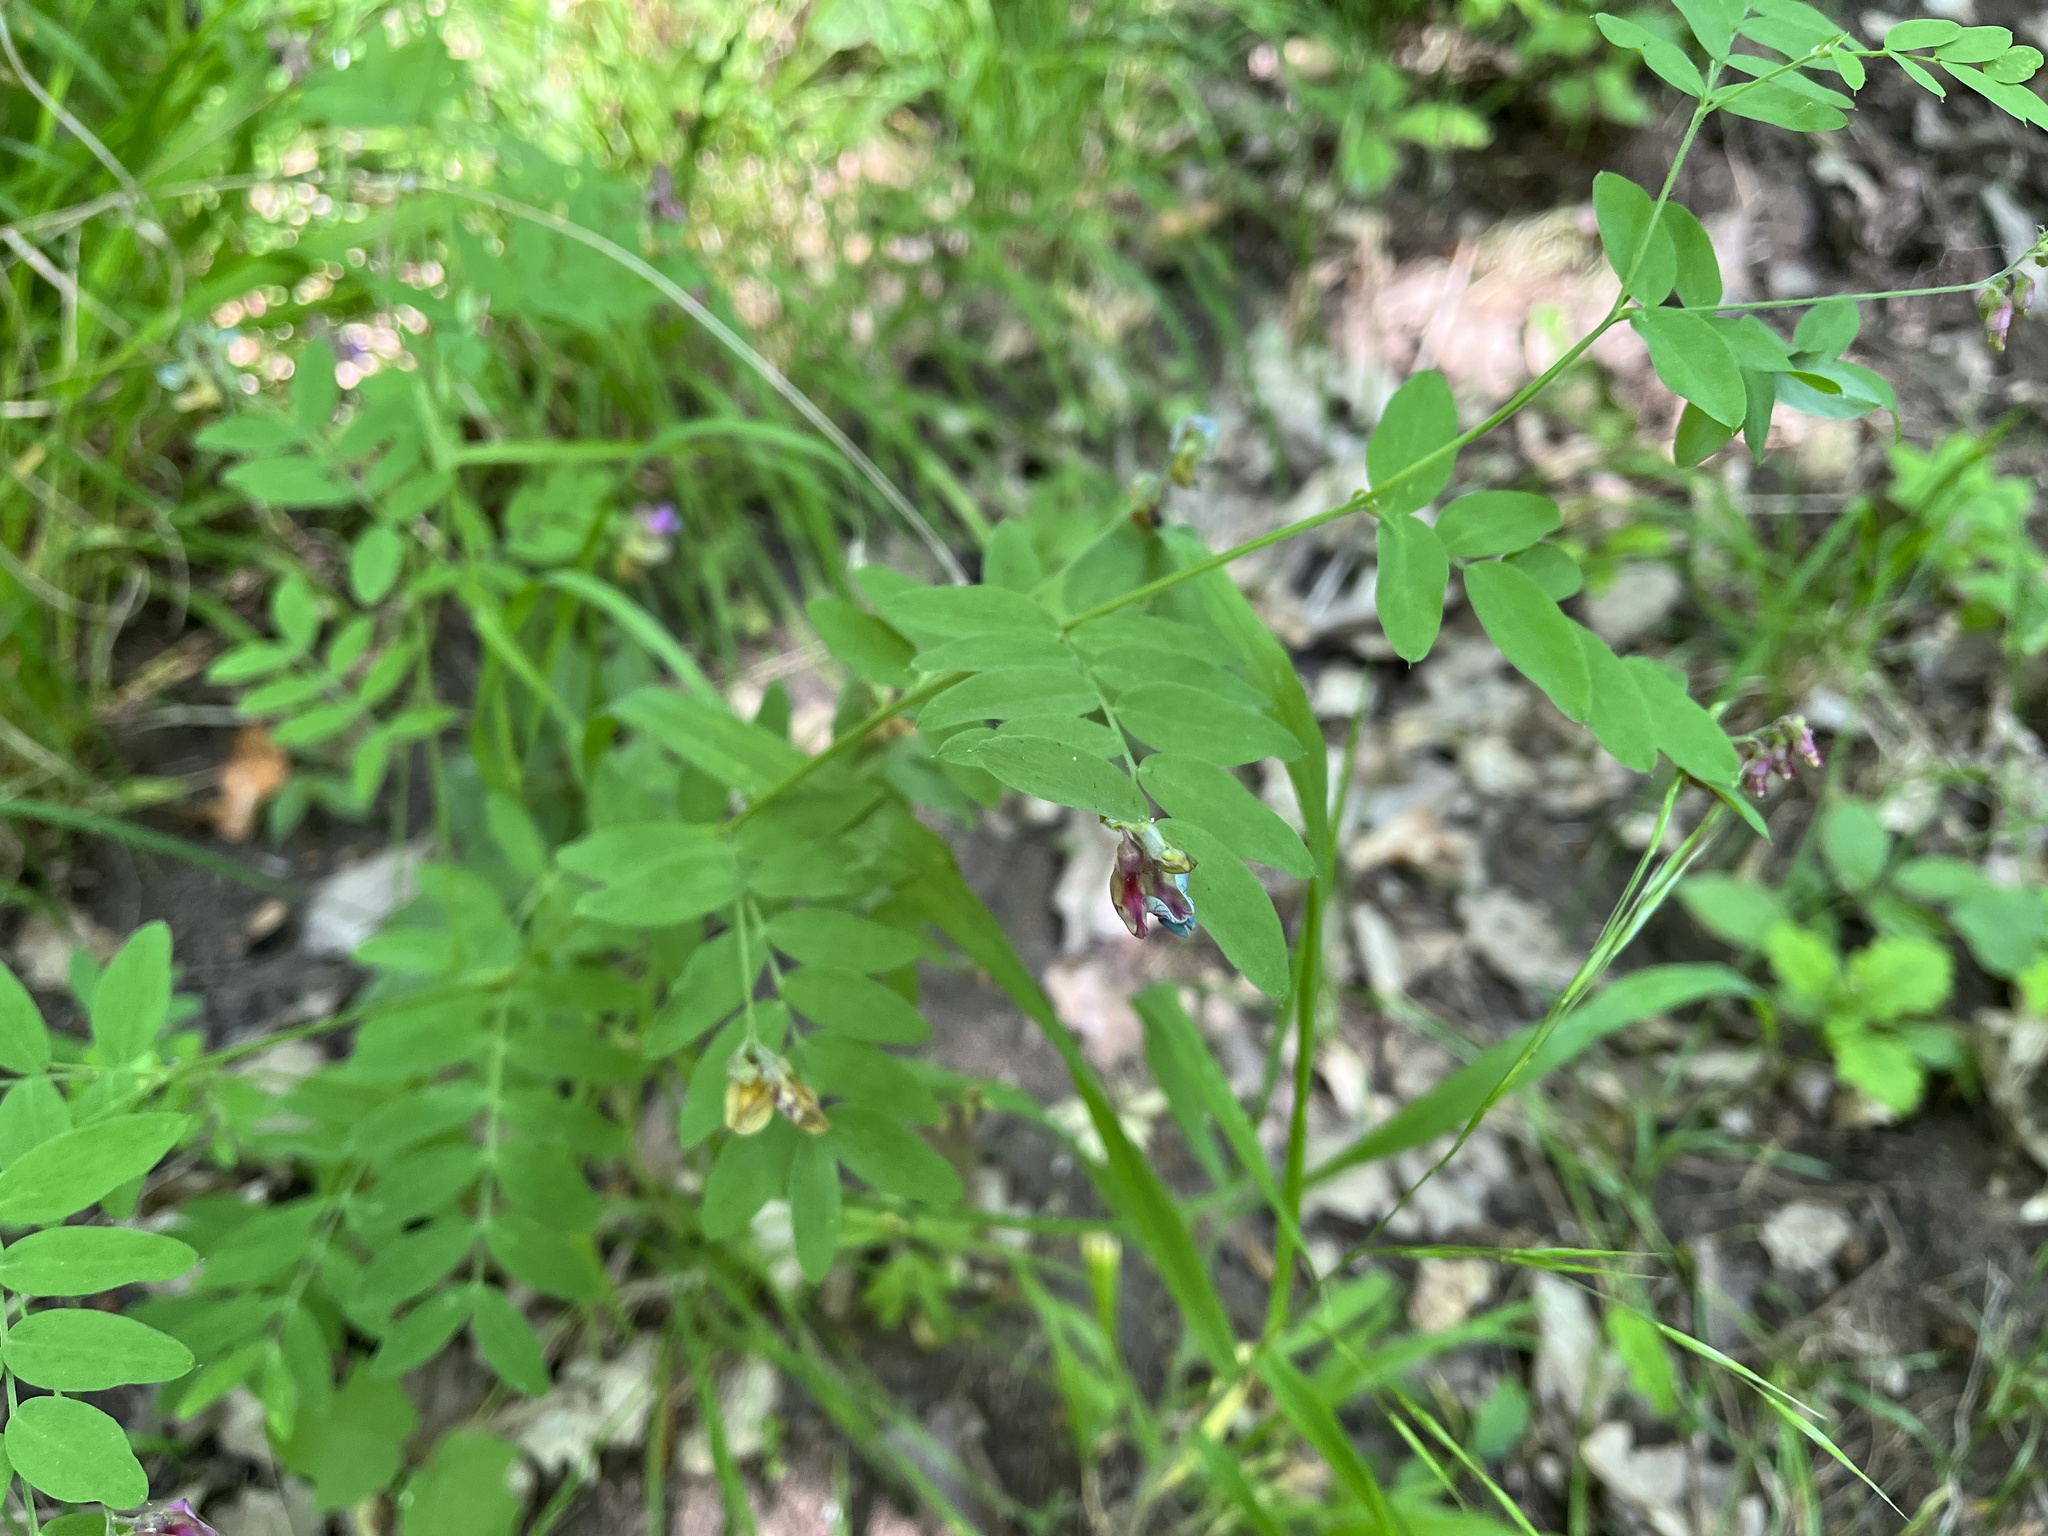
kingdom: Plantae
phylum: Tracheophyta
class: Magnoliopsida
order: Fabales
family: Fabaceae
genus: Lathyrus
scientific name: Lathyrus niger
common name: Black pea
